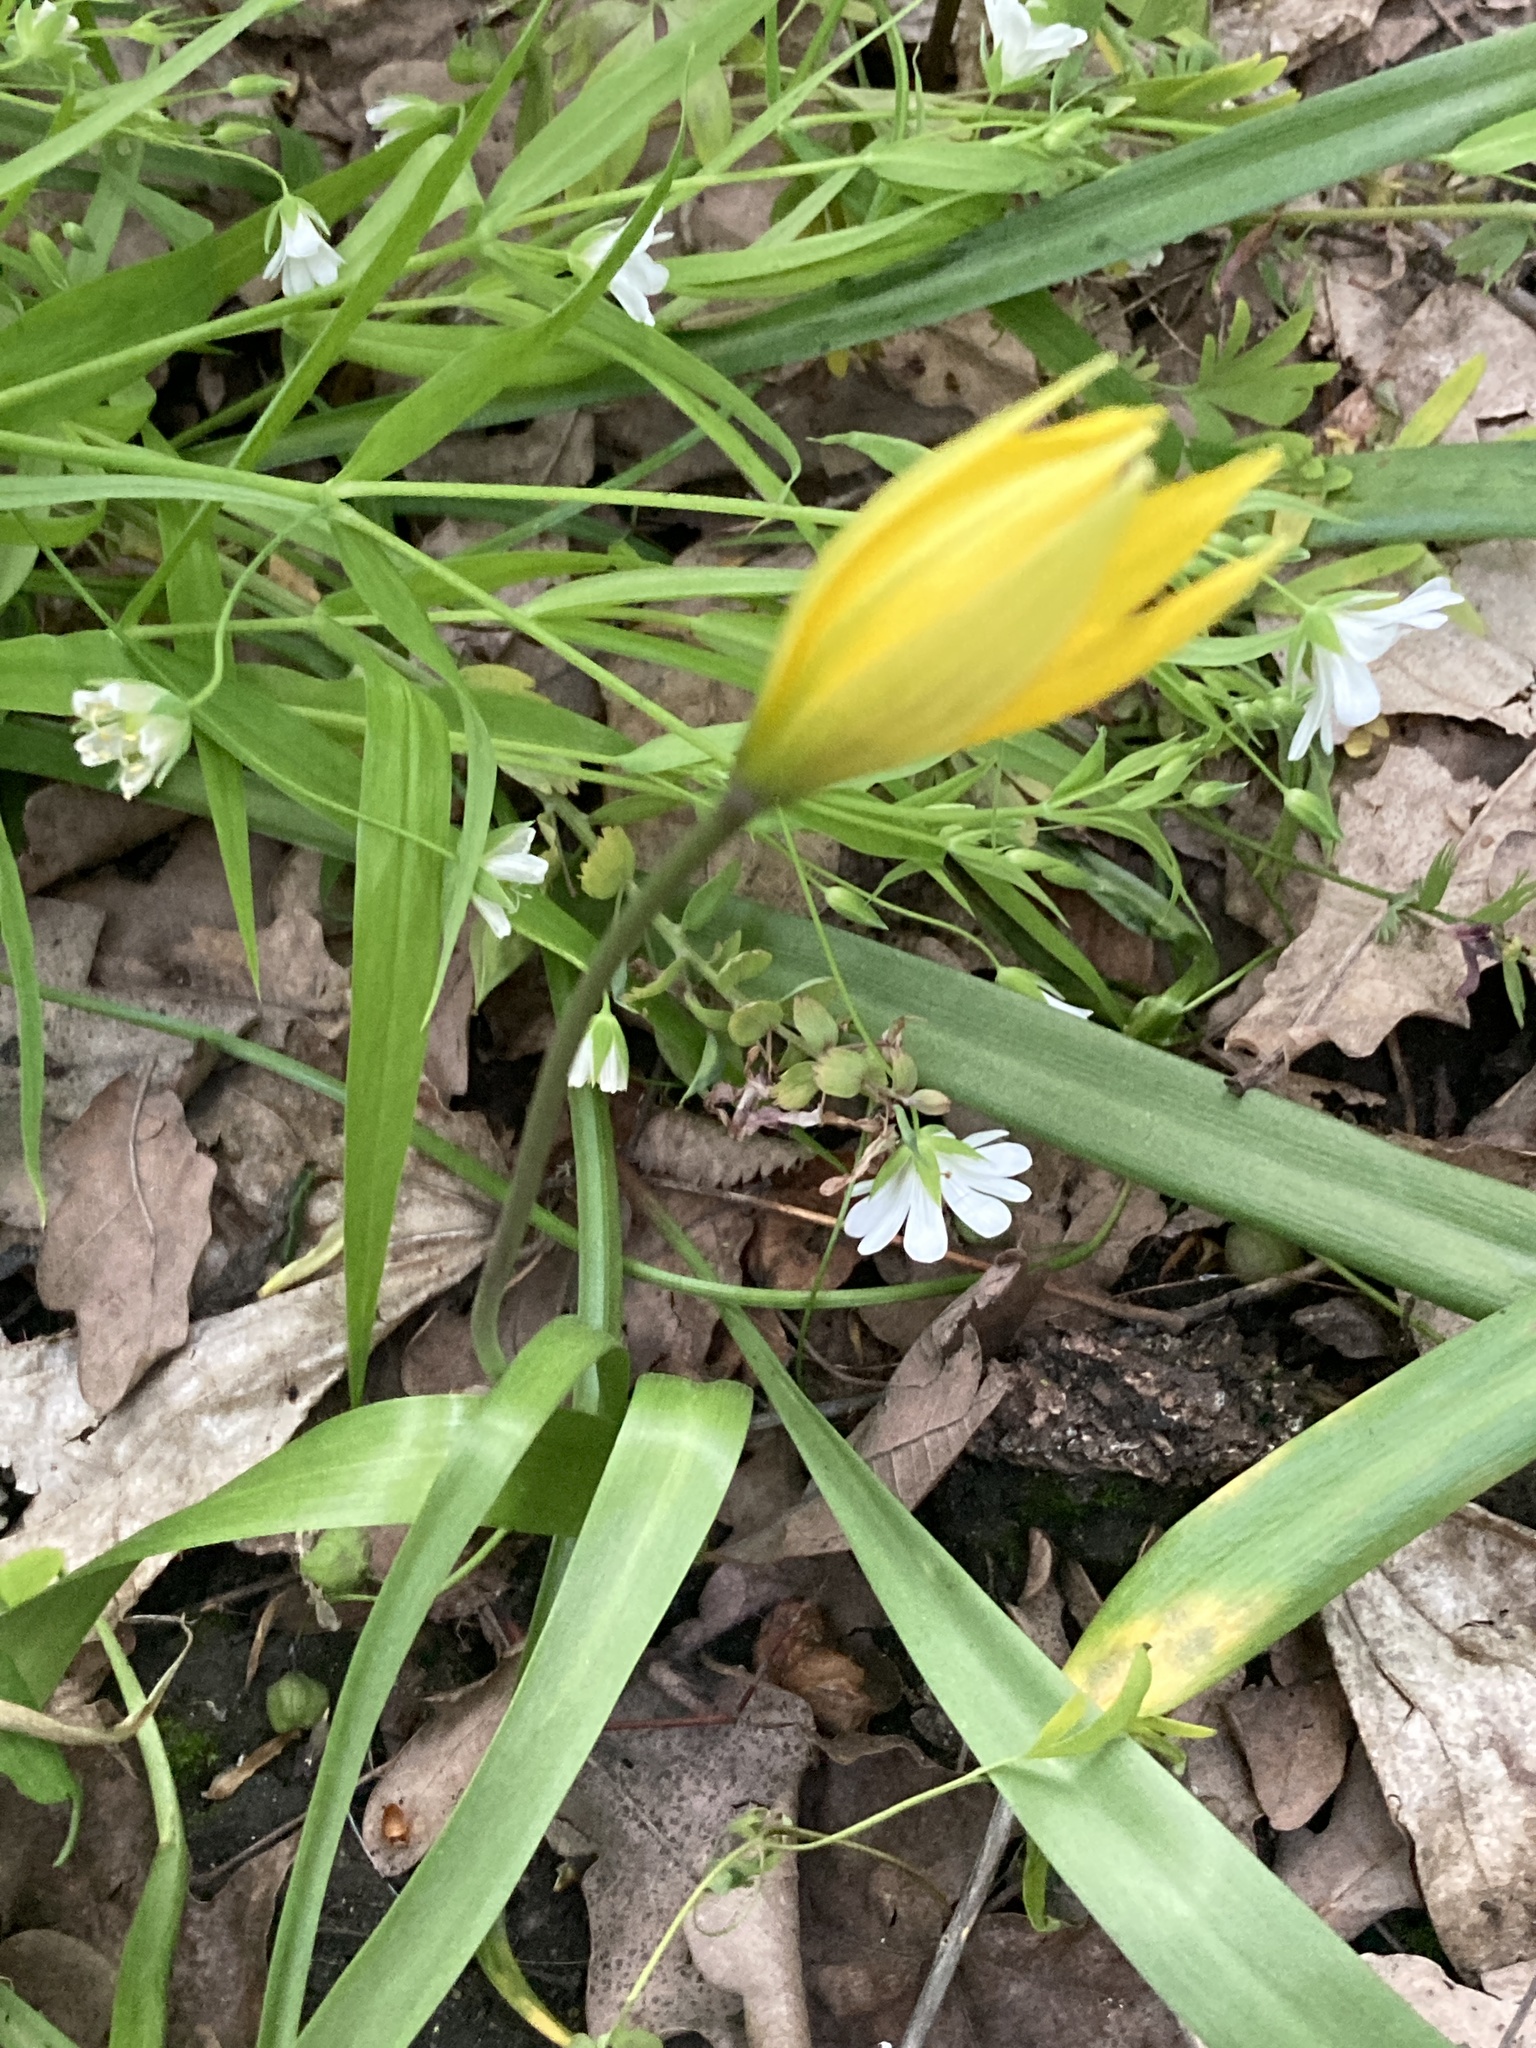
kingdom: Plantae
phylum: Tracheophyta
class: Liliopsida
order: Liliales
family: Liliaceae
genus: Tulipa
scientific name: Tulipa sylvestris
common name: Wild tulip
